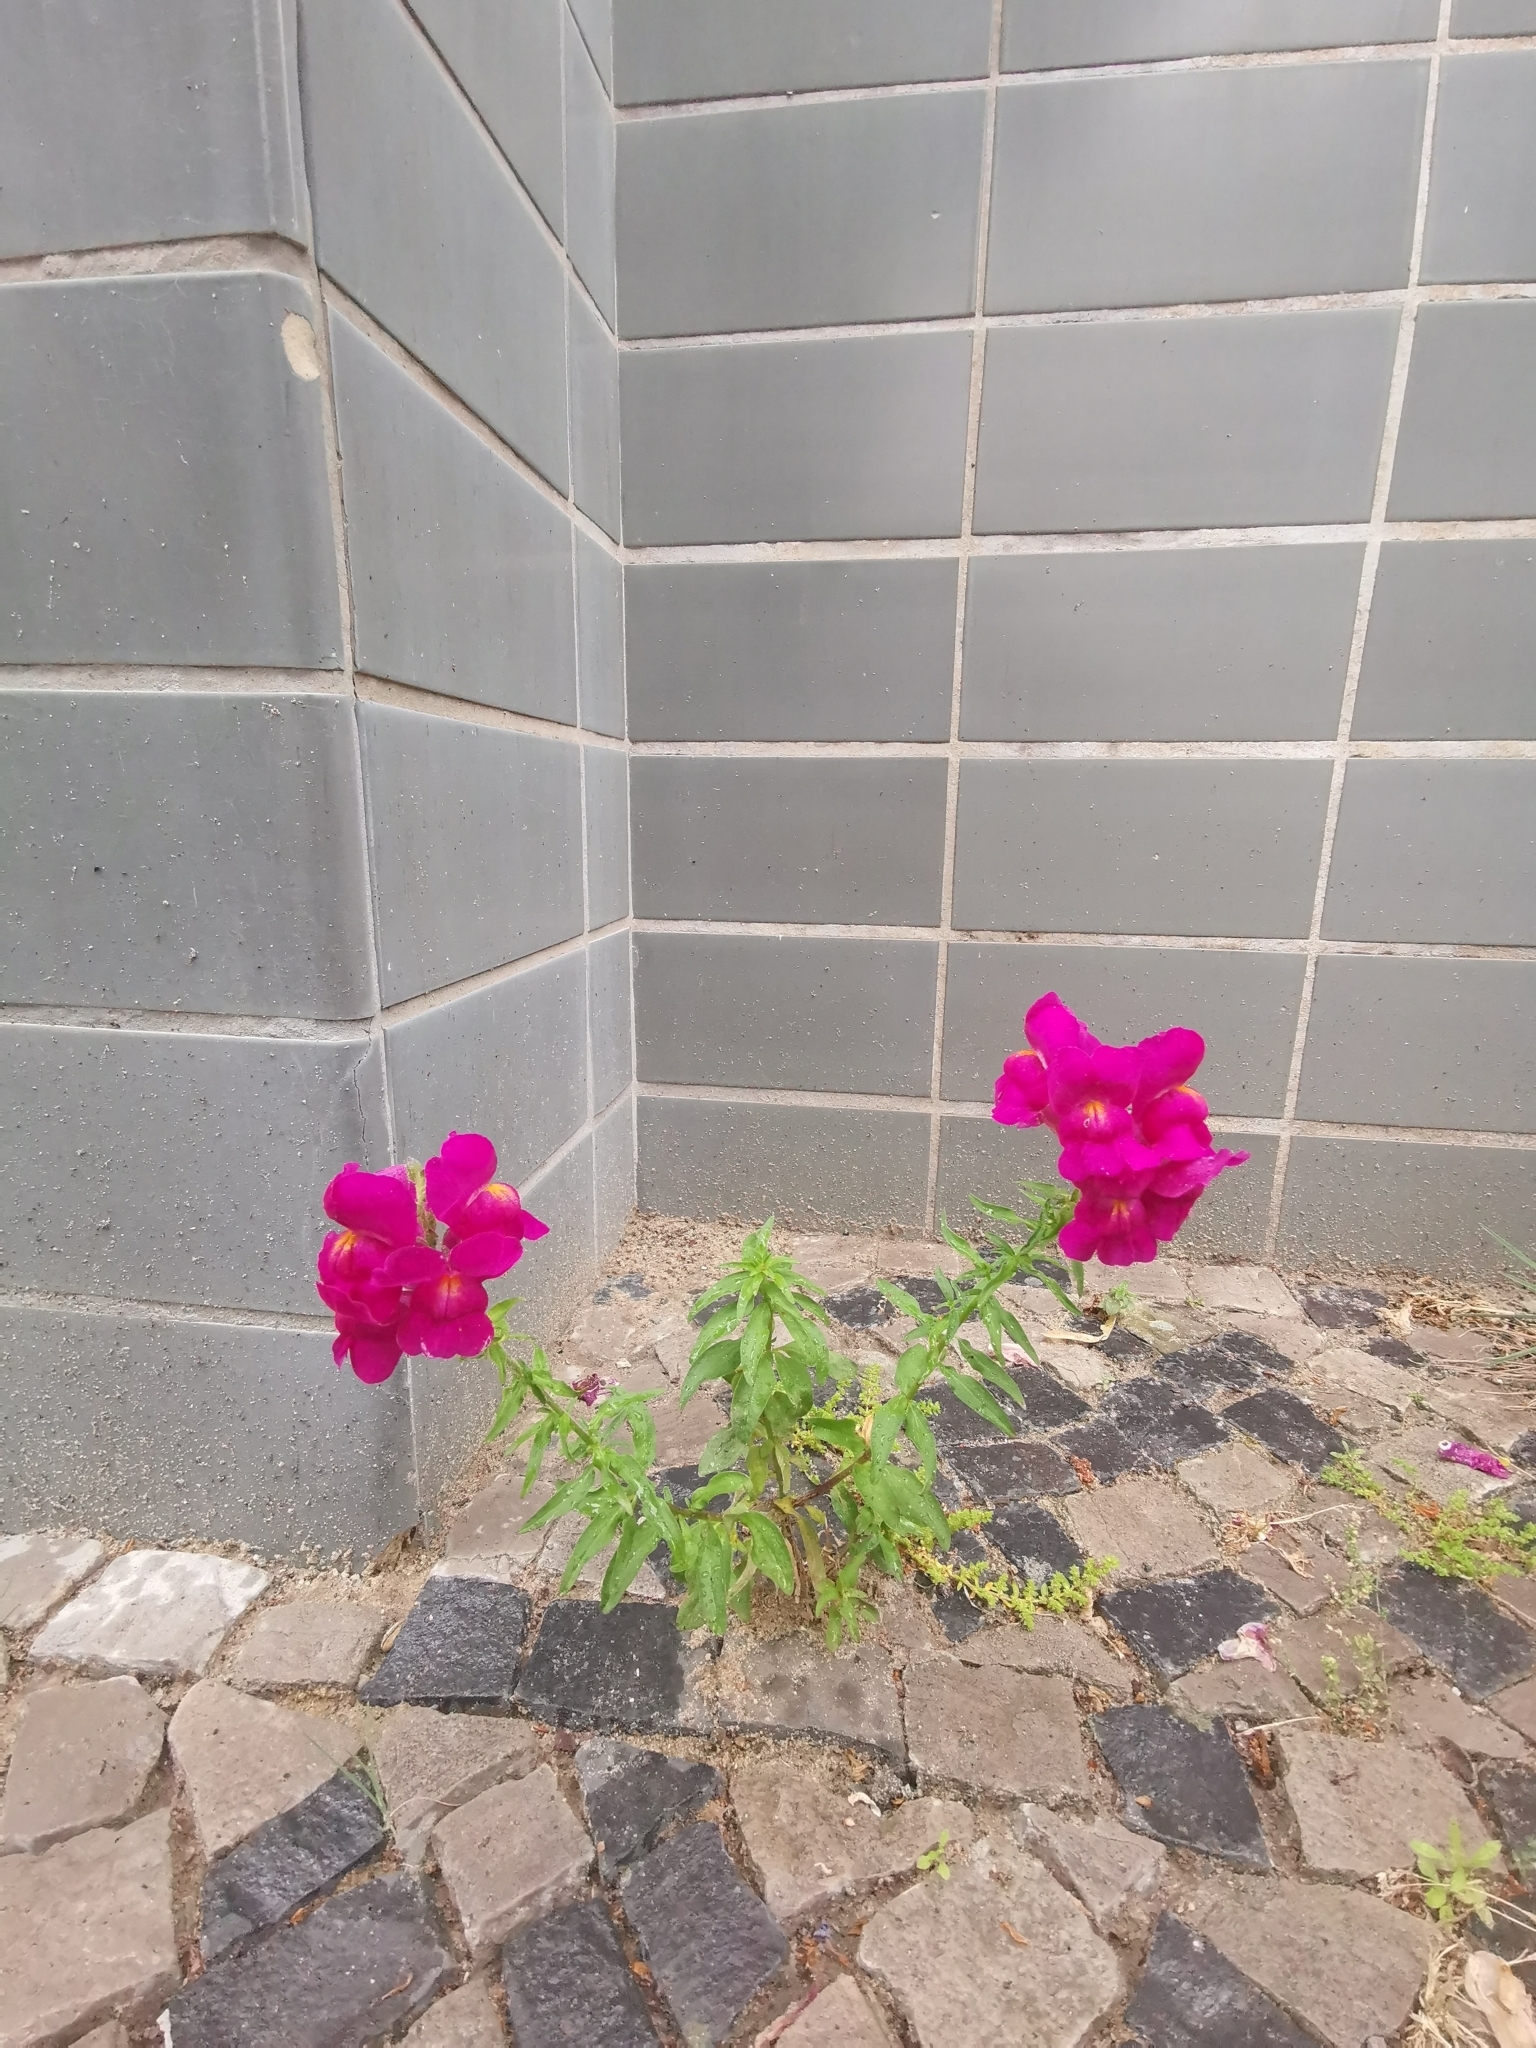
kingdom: Plantae
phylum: Tracheophyta
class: Magnoliopsida
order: Lamiales
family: Plantaginaceae
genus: Antirrhinum
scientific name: Antirrhinum majus
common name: Snapdragon
